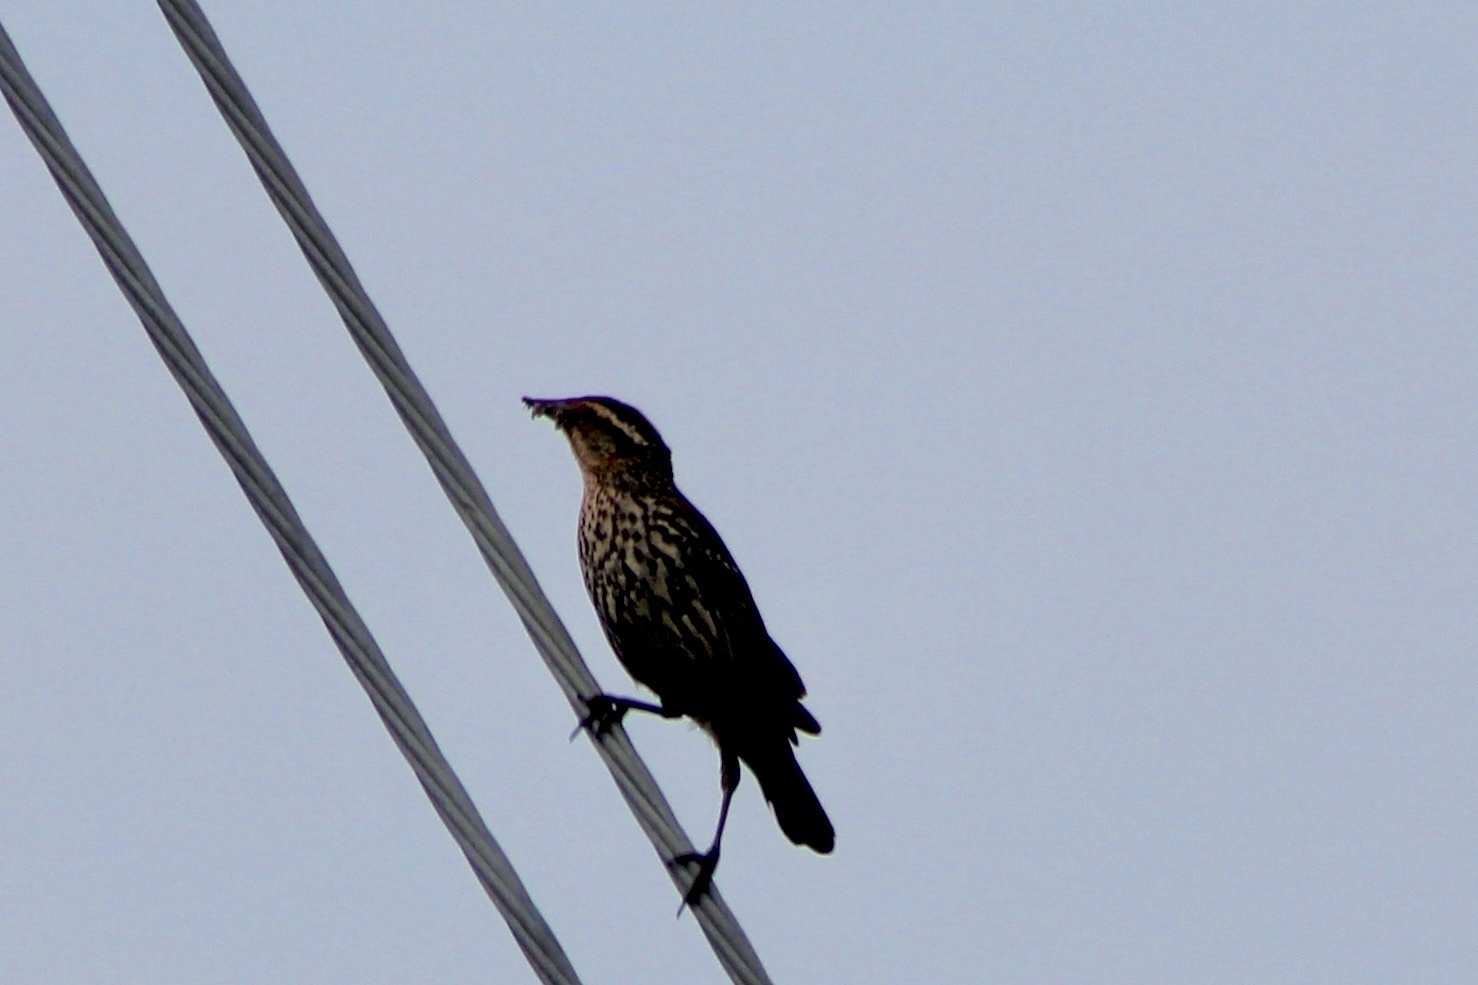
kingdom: Animalia
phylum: Chordata
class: Aves
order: Passeriformes
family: Icteridae
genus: Agelaius
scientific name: Agelaius phoeniceus
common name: Red-winged blackbird
